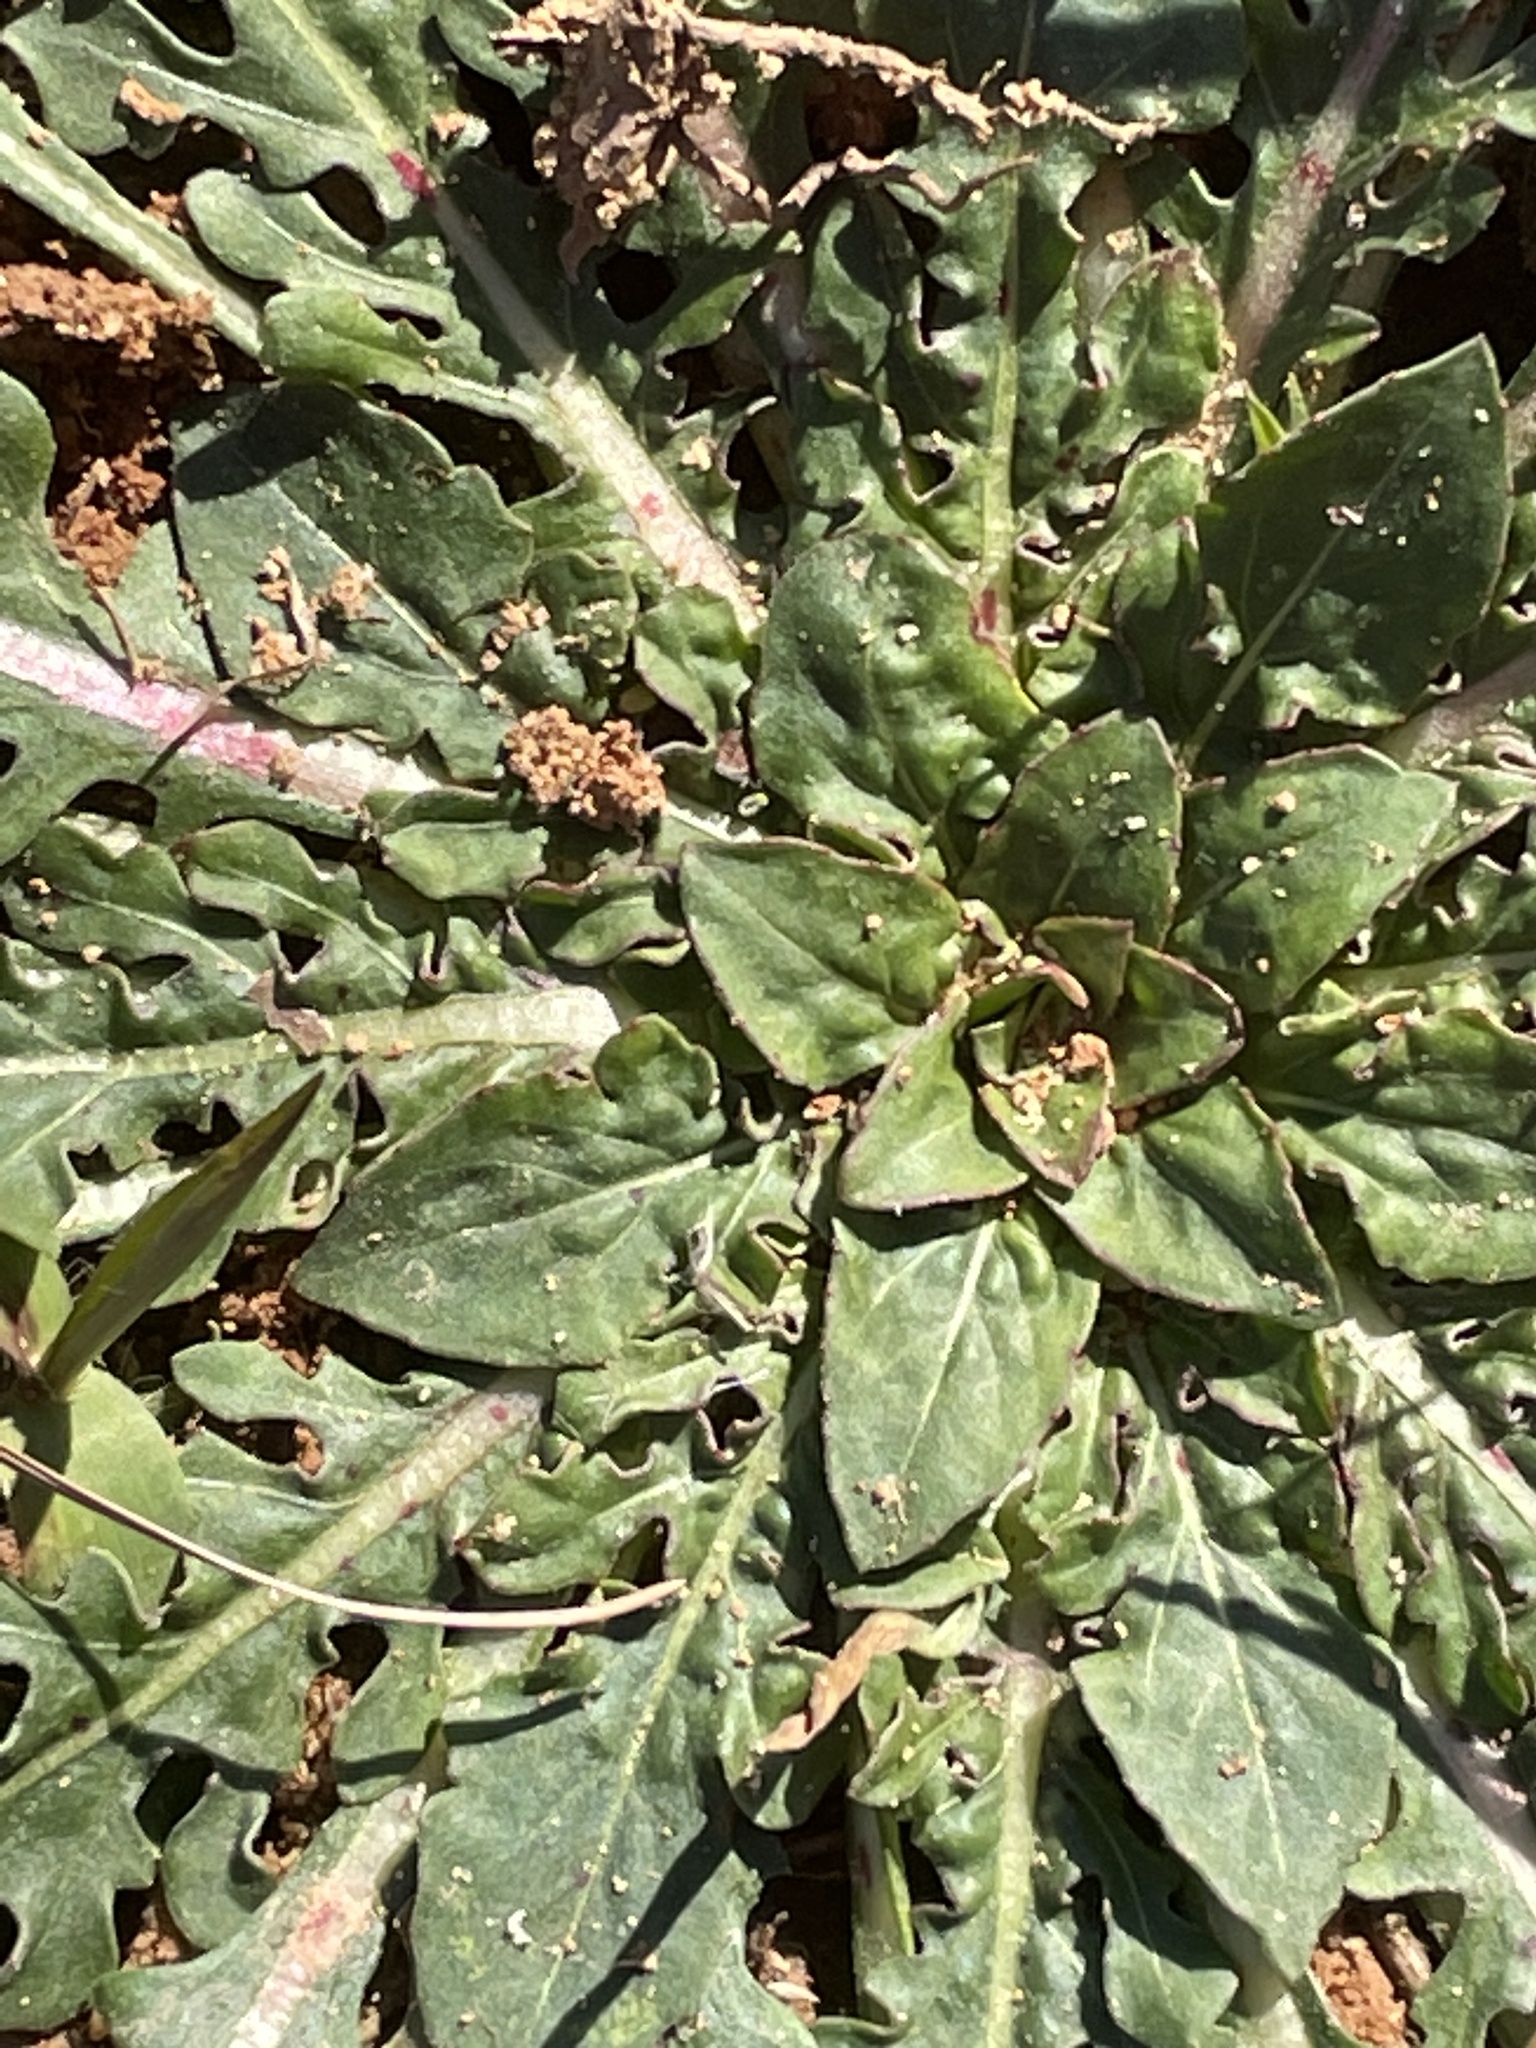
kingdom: Plantae
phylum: Tracheophyta
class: Magnoliopsida
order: Myrtales
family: Onagraceae
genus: Oenothera
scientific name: Oenothera laciniata
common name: Cut-leaved evening-primrose
